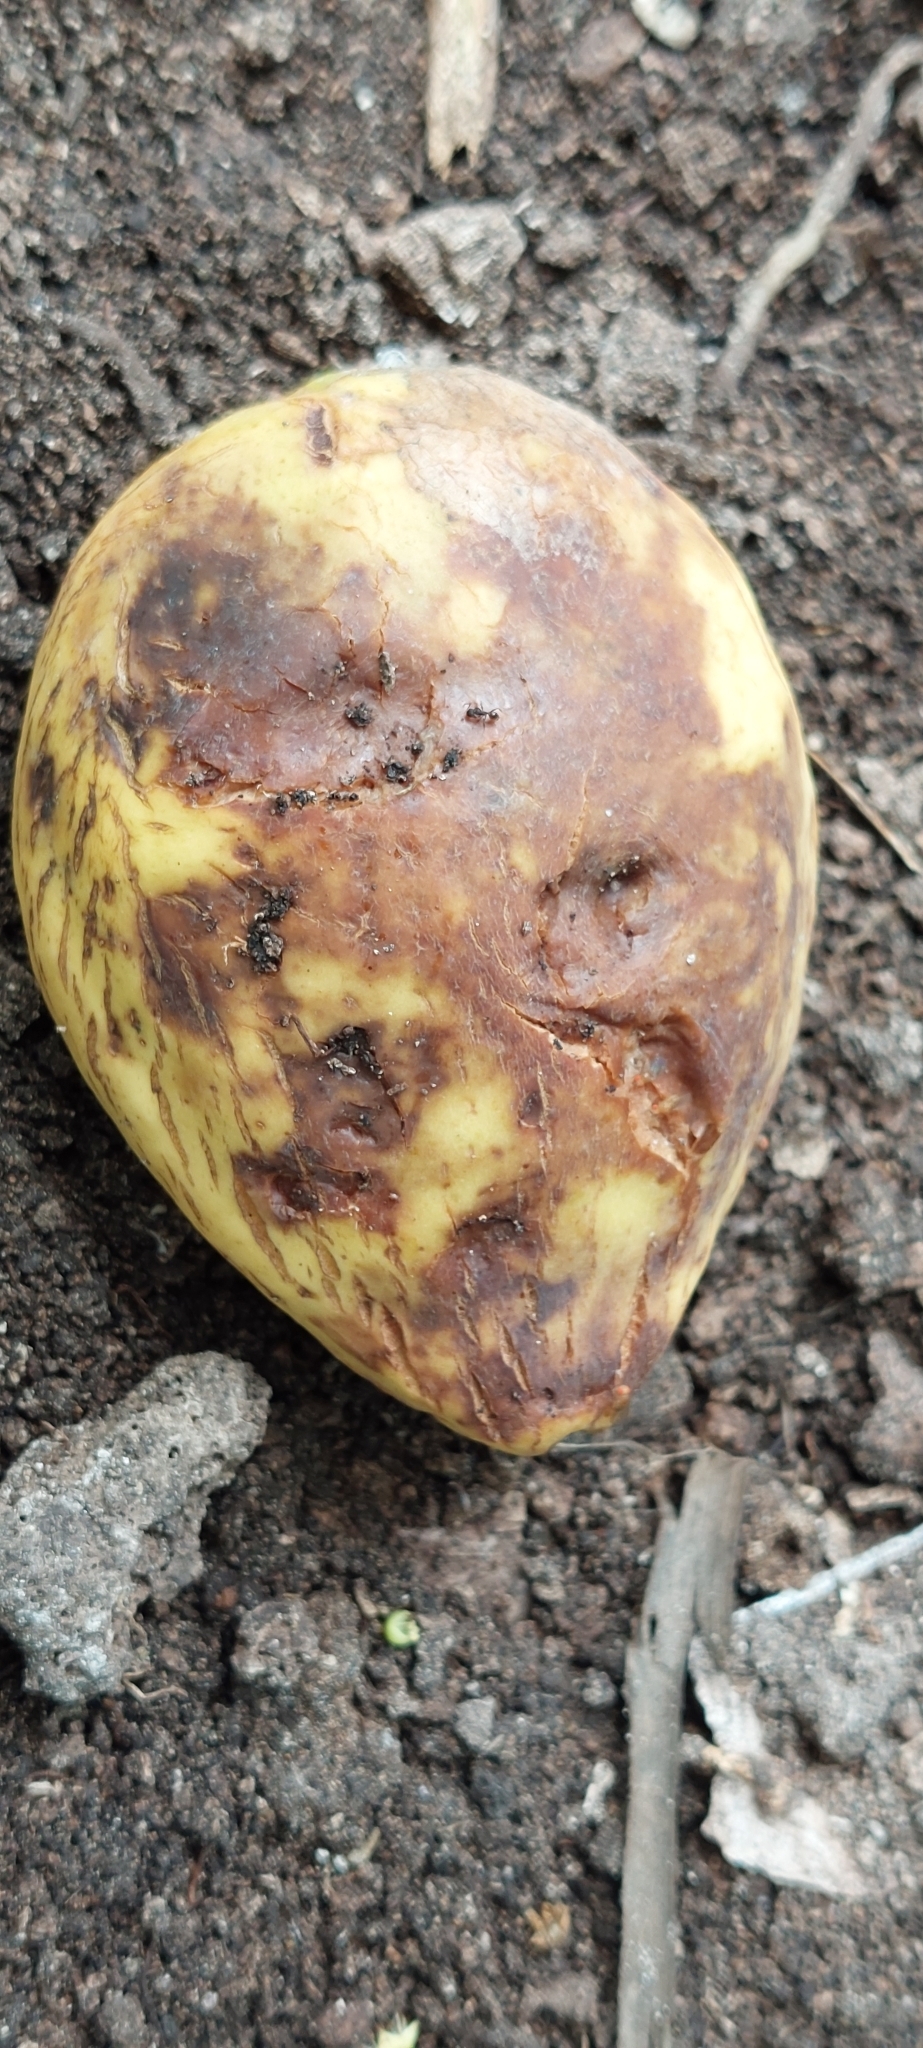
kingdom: Plantae
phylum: Tracheophyta
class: Magnoliopsida
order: Myrtales
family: Combretaceae
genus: Terminalia
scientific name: Terminalia catappa
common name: Tropical almond
